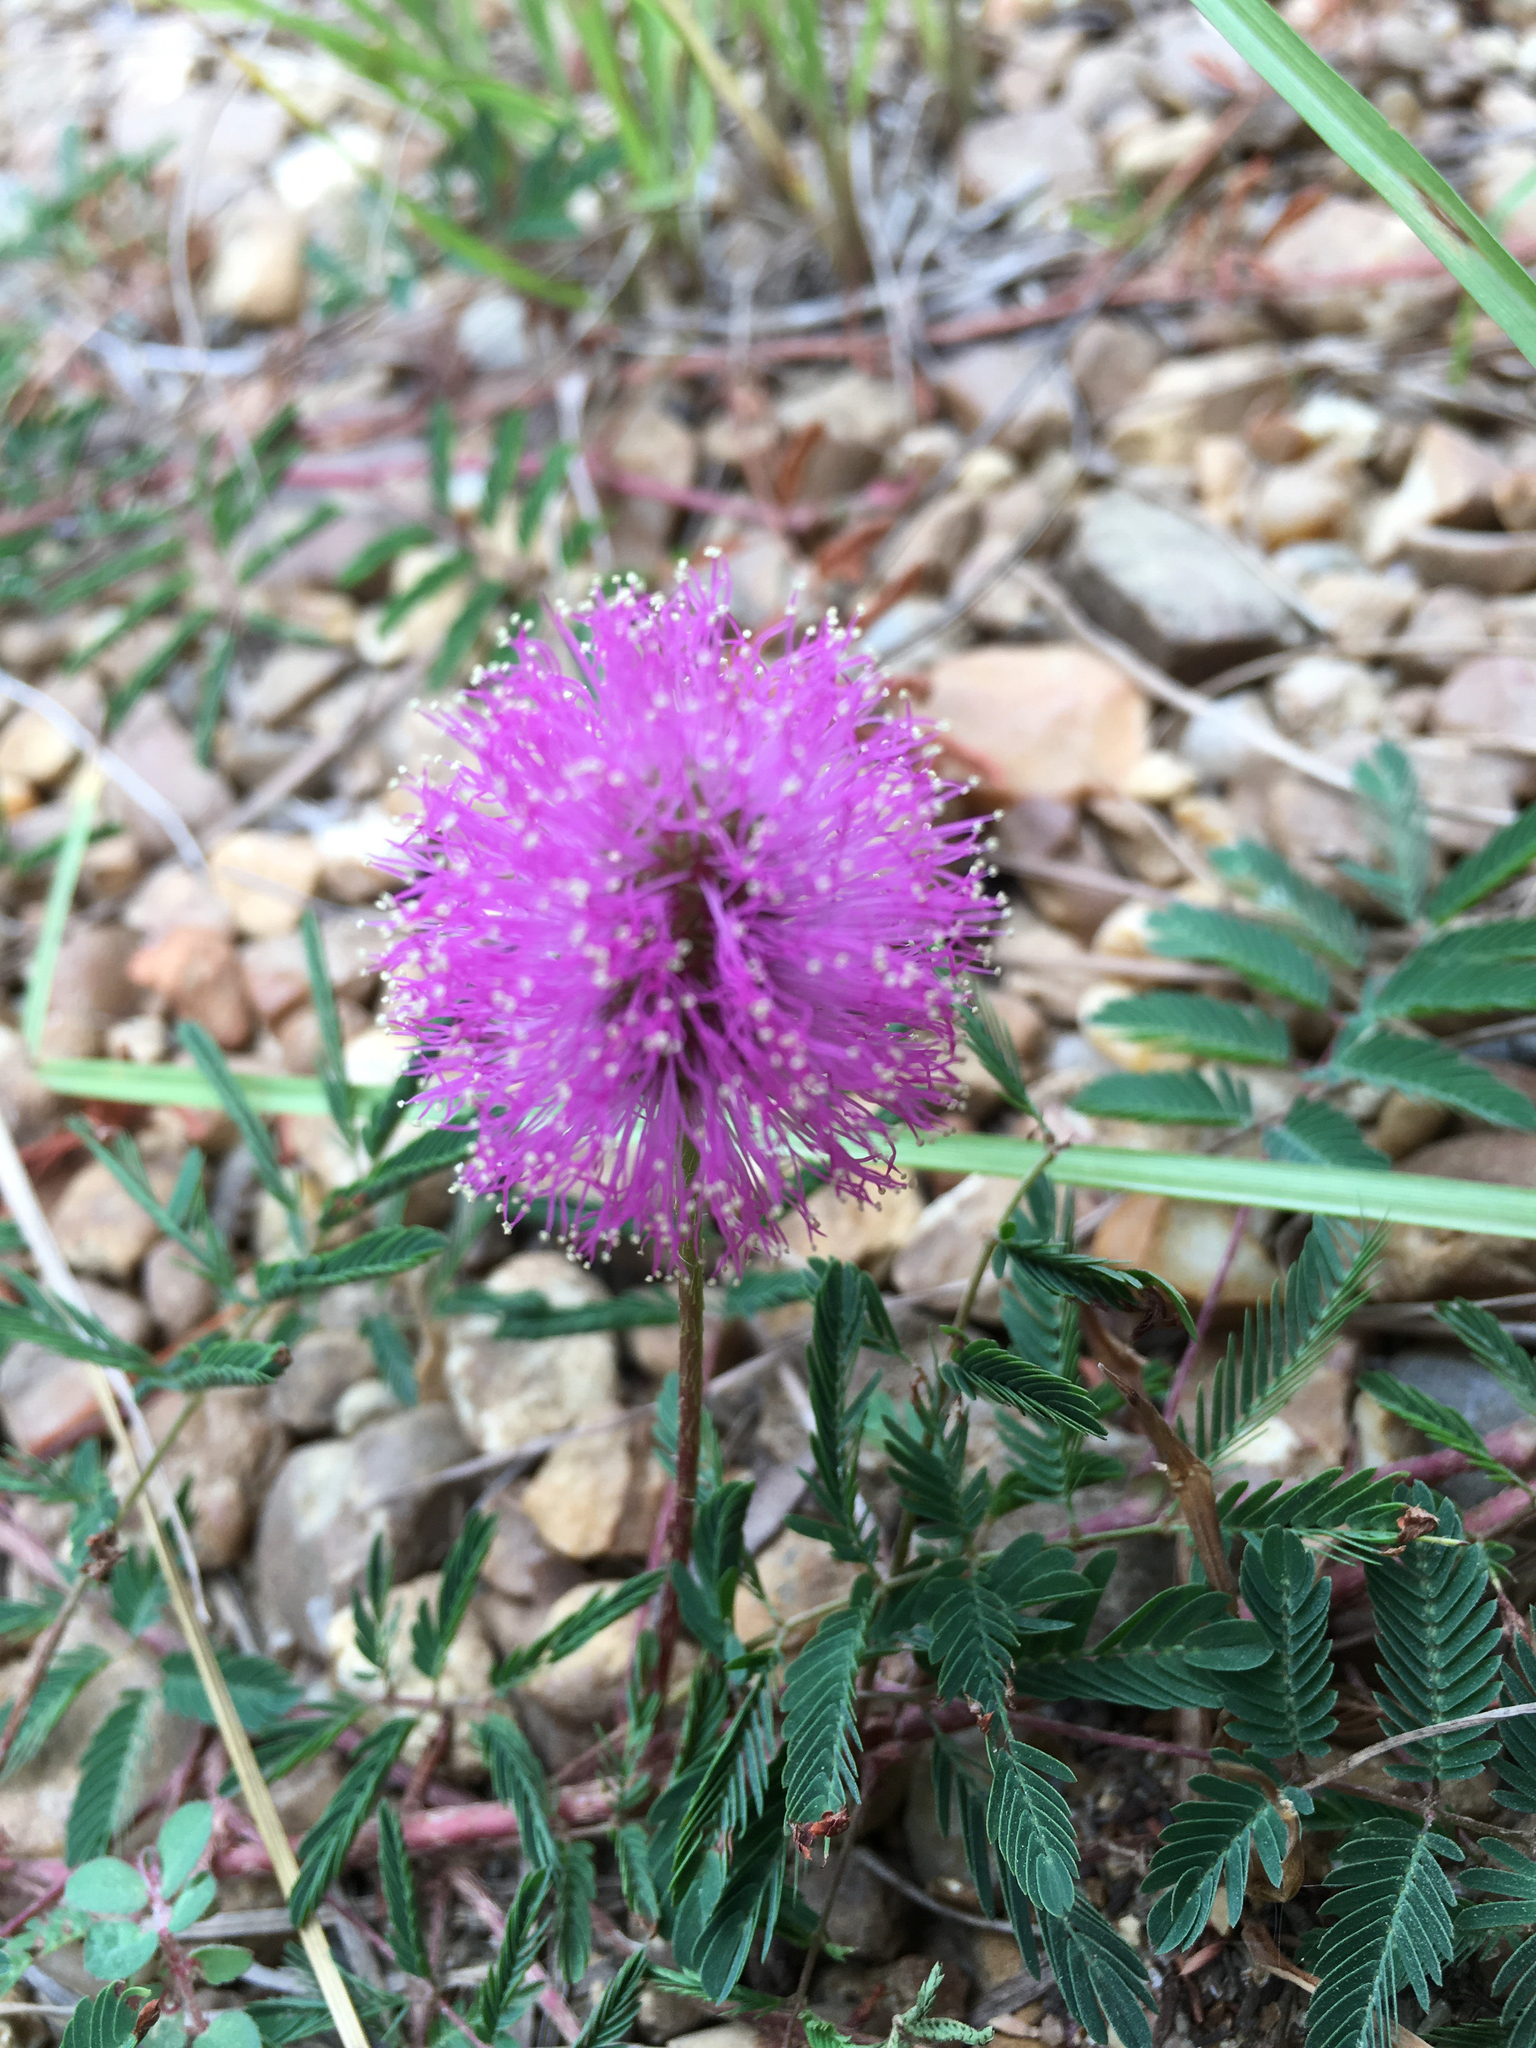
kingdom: Plantae
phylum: Tracheophyta
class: Magnoliopsida
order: Fabales
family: Fabaceae
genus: Mimosa
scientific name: Mimosa strigillosa
